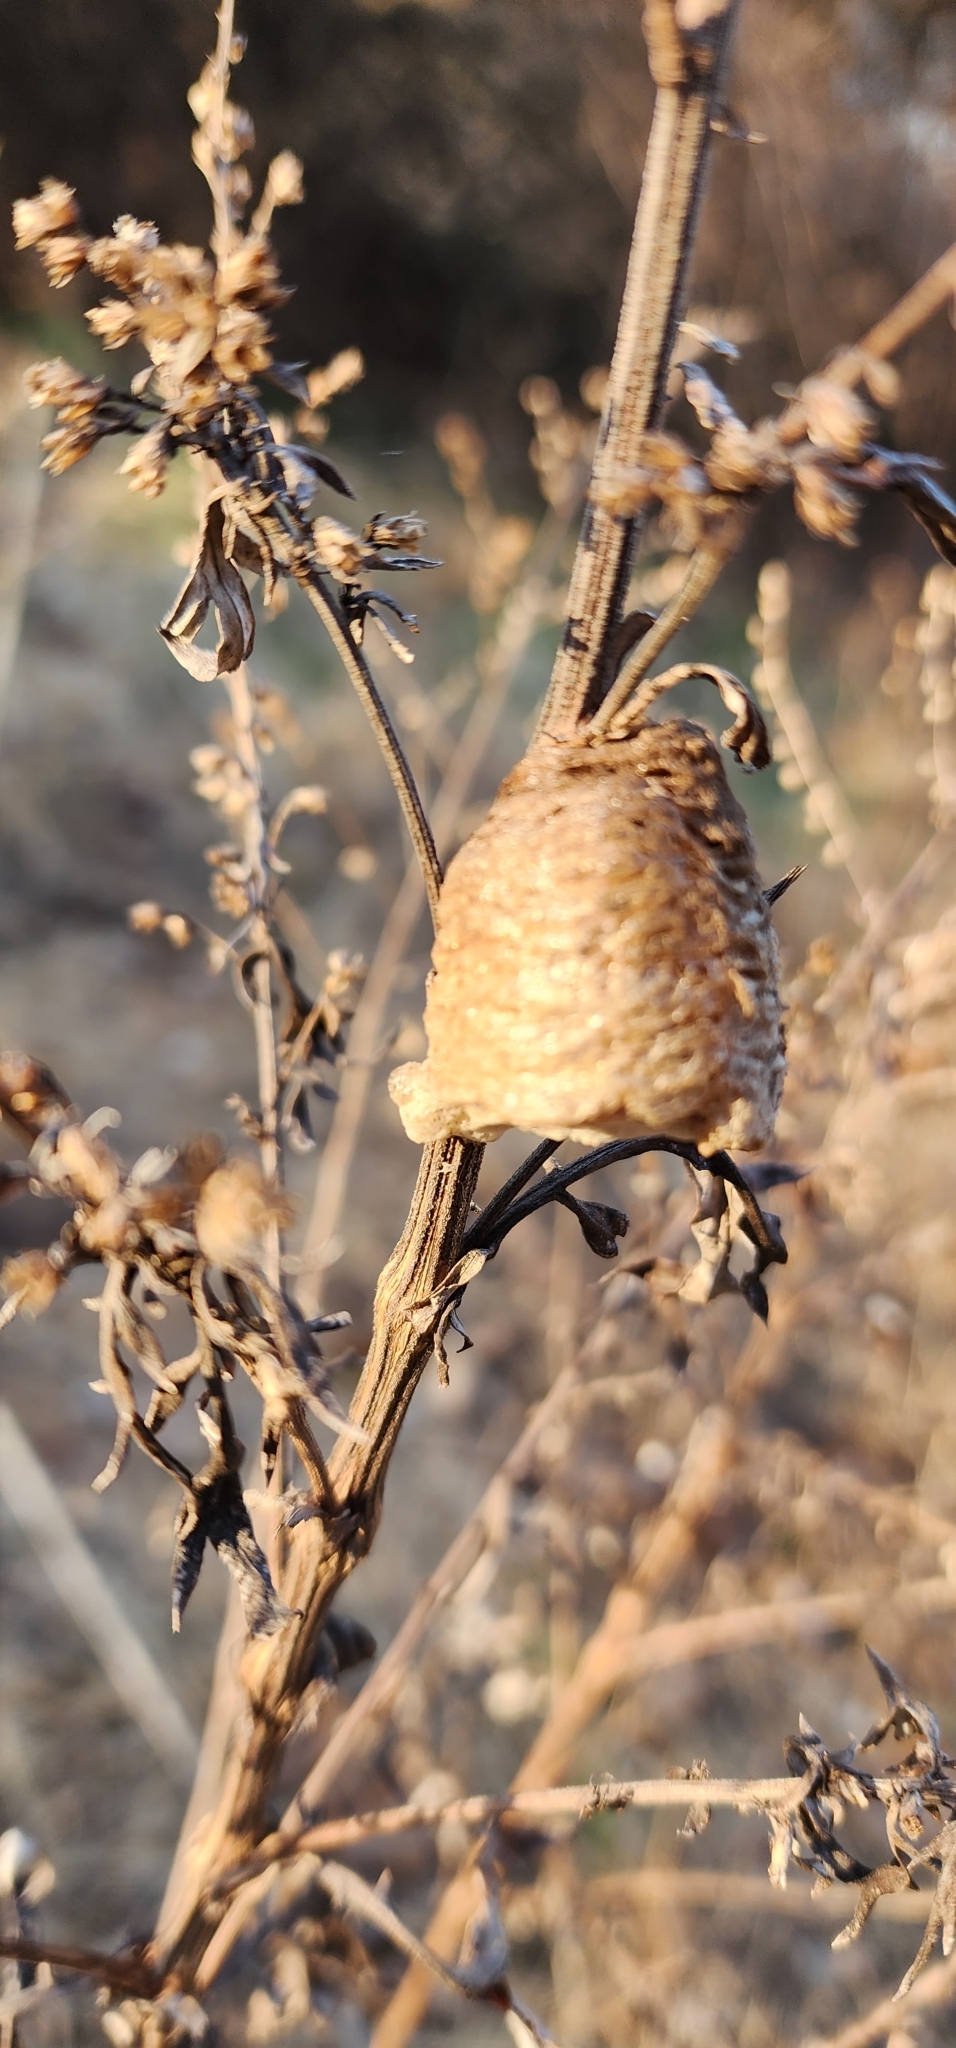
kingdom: Animalia
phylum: Arthropoda
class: Insecta
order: Mantodea
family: Mantidae
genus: Tenodera
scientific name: Tenodera sinensis
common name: Chinese mantis
